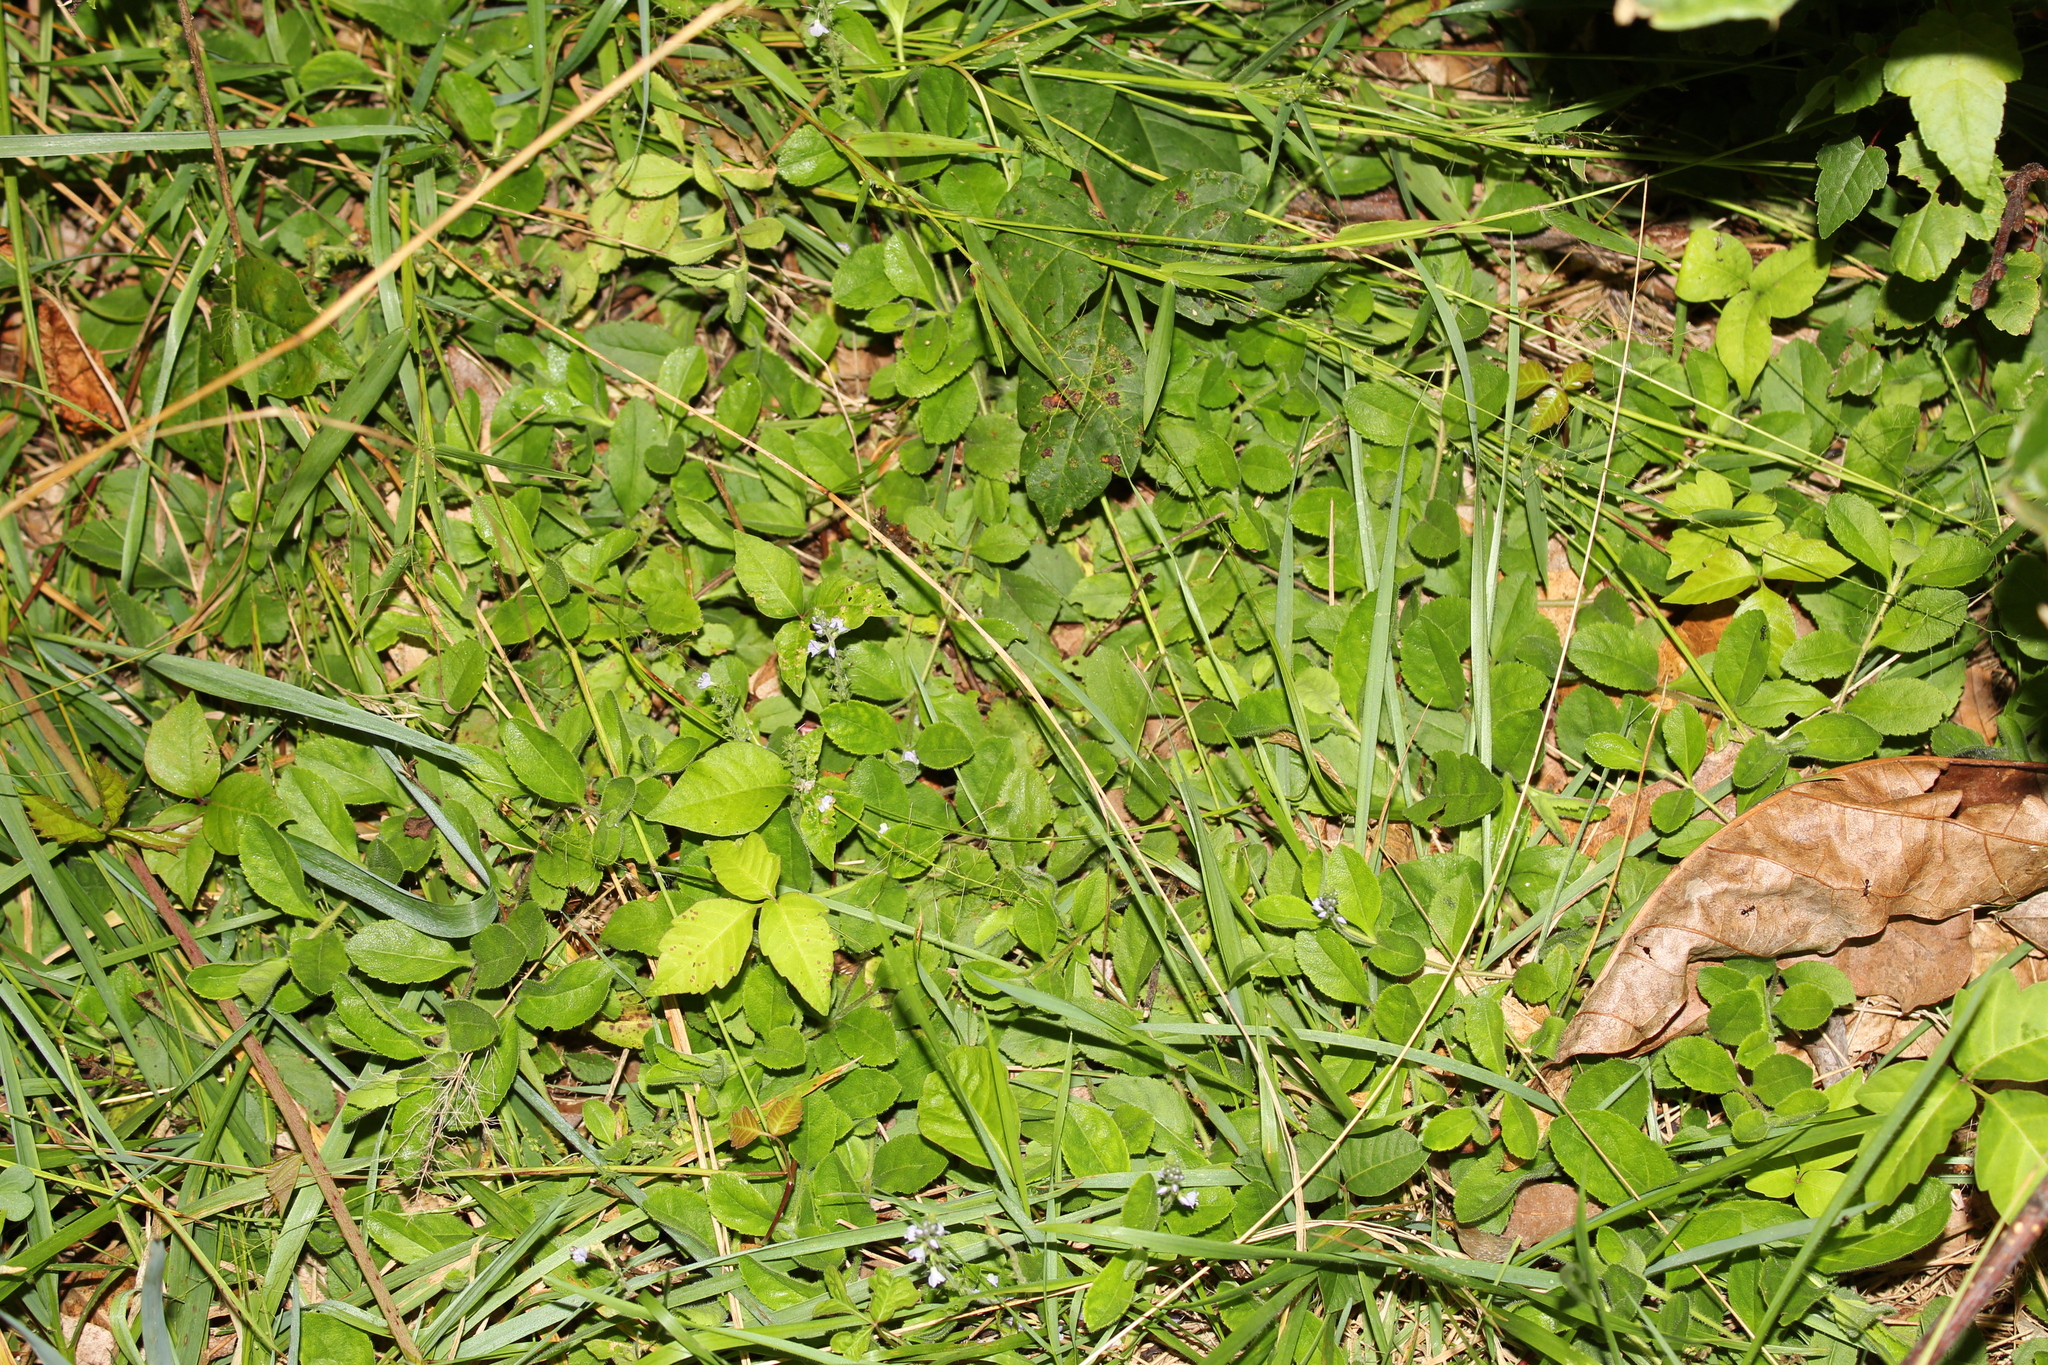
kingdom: Plantae
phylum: Tracheophyta
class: Magnoliopsida
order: Lamiales
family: Plantaginaceae
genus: Veronica
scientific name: Veronica officinalis
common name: Common speedwell
